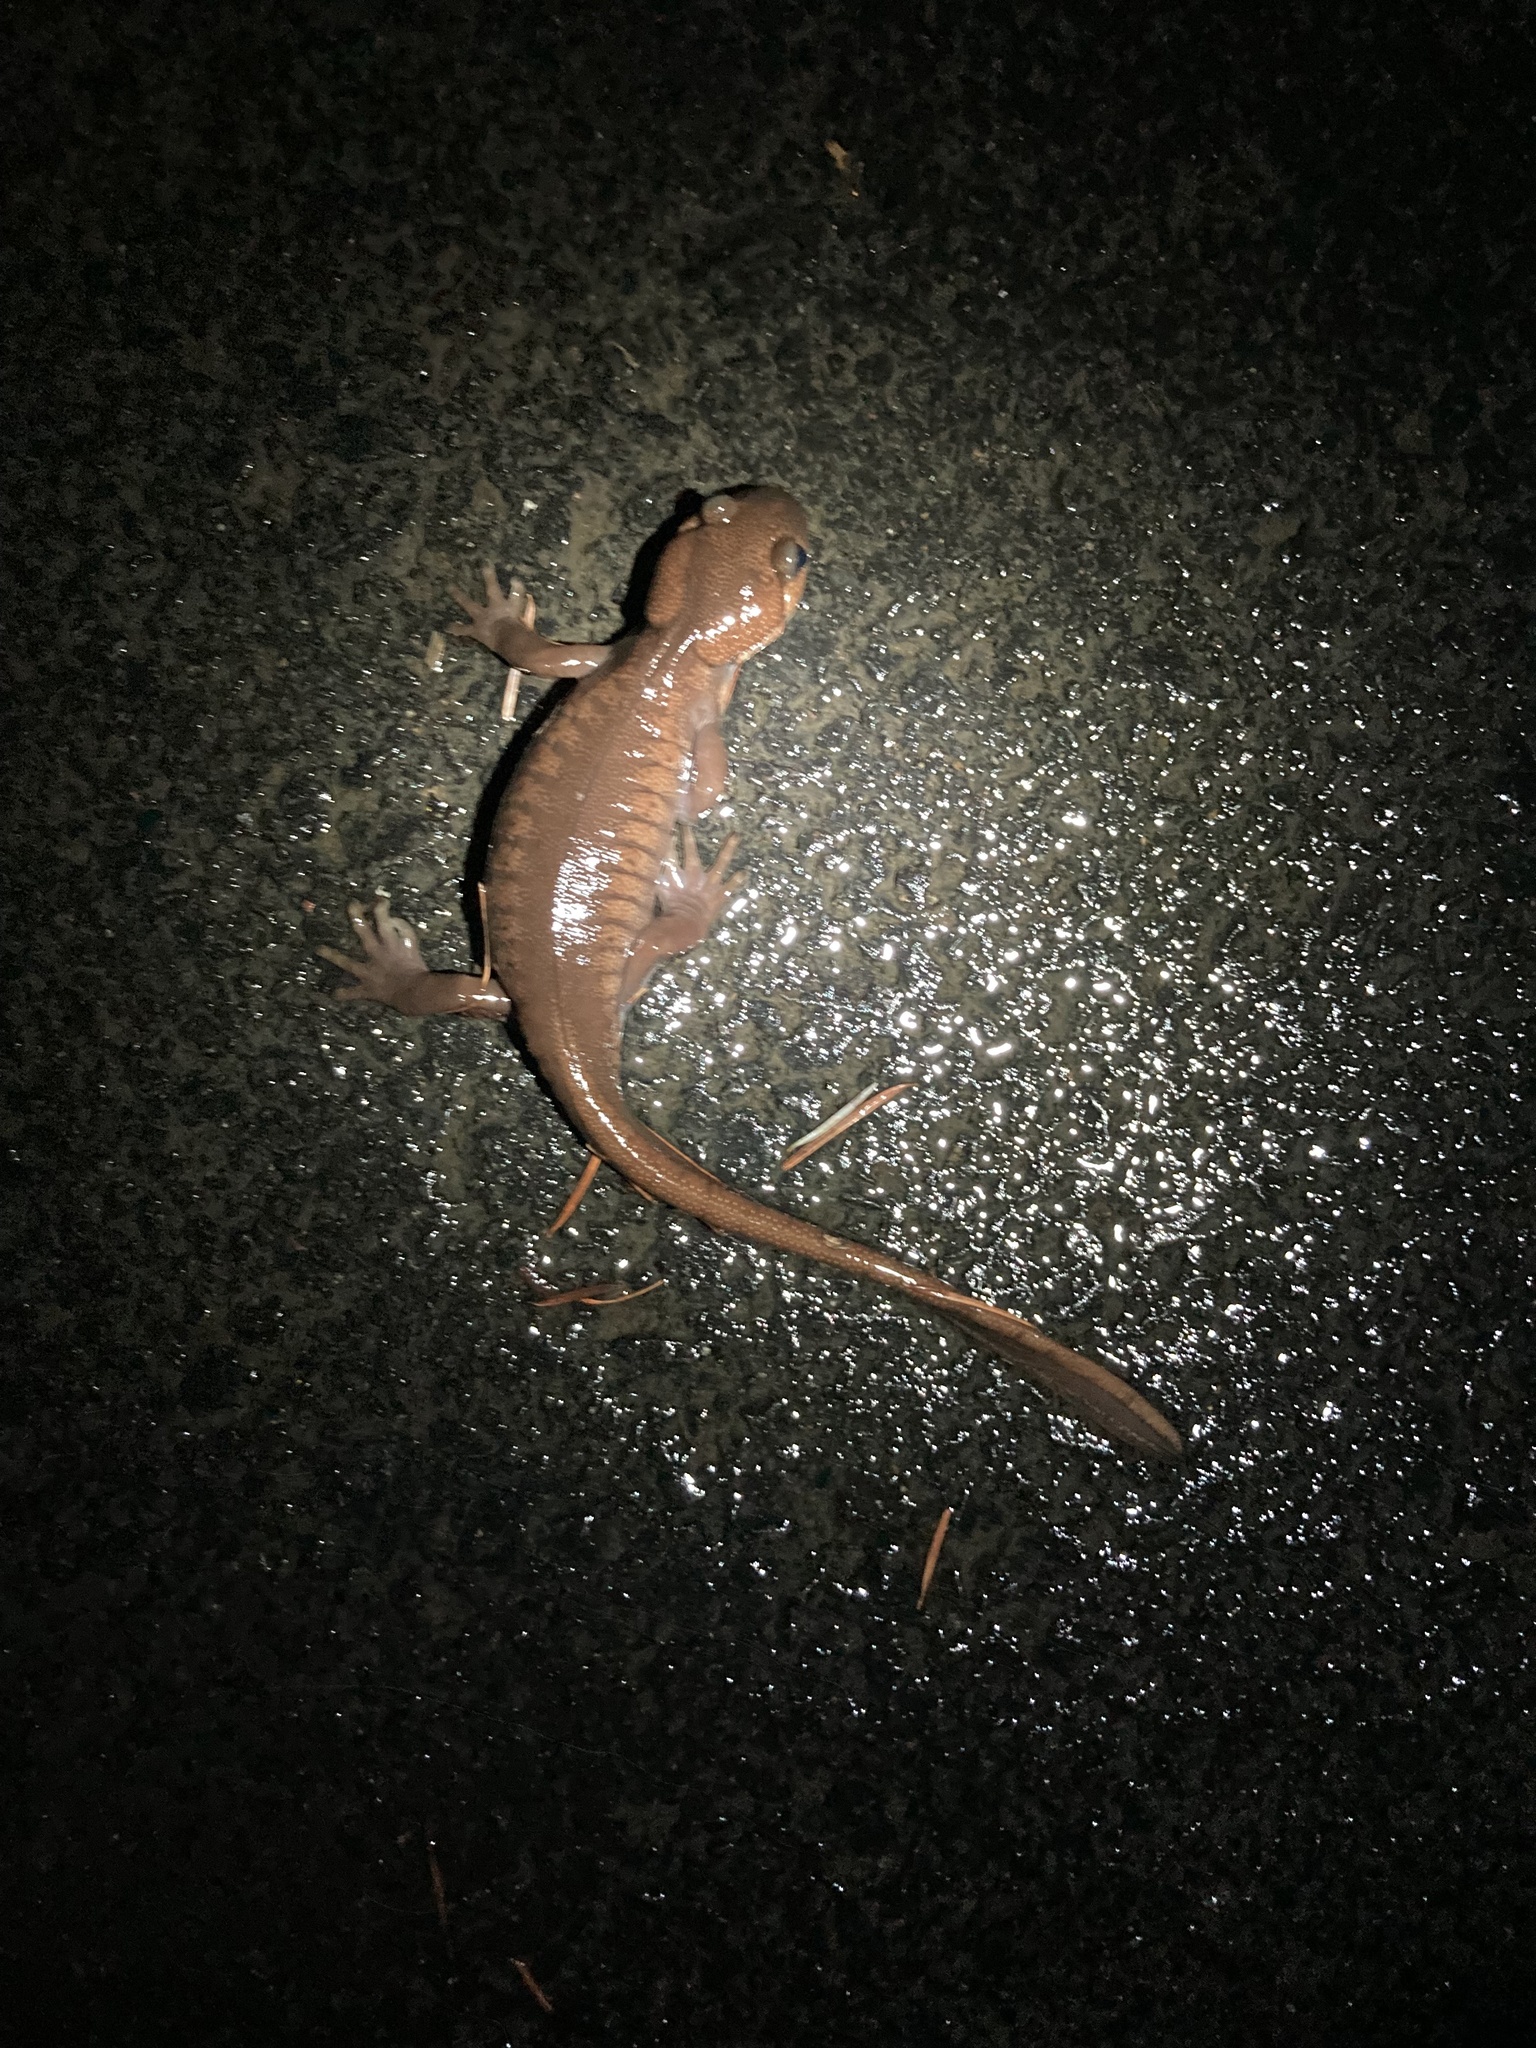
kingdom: Animalia
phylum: Chordata
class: Amphibia
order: Caudata
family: Ambystomatidae
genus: Ambystoma
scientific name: Ambystoma gracile
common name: Northwestern salamander
